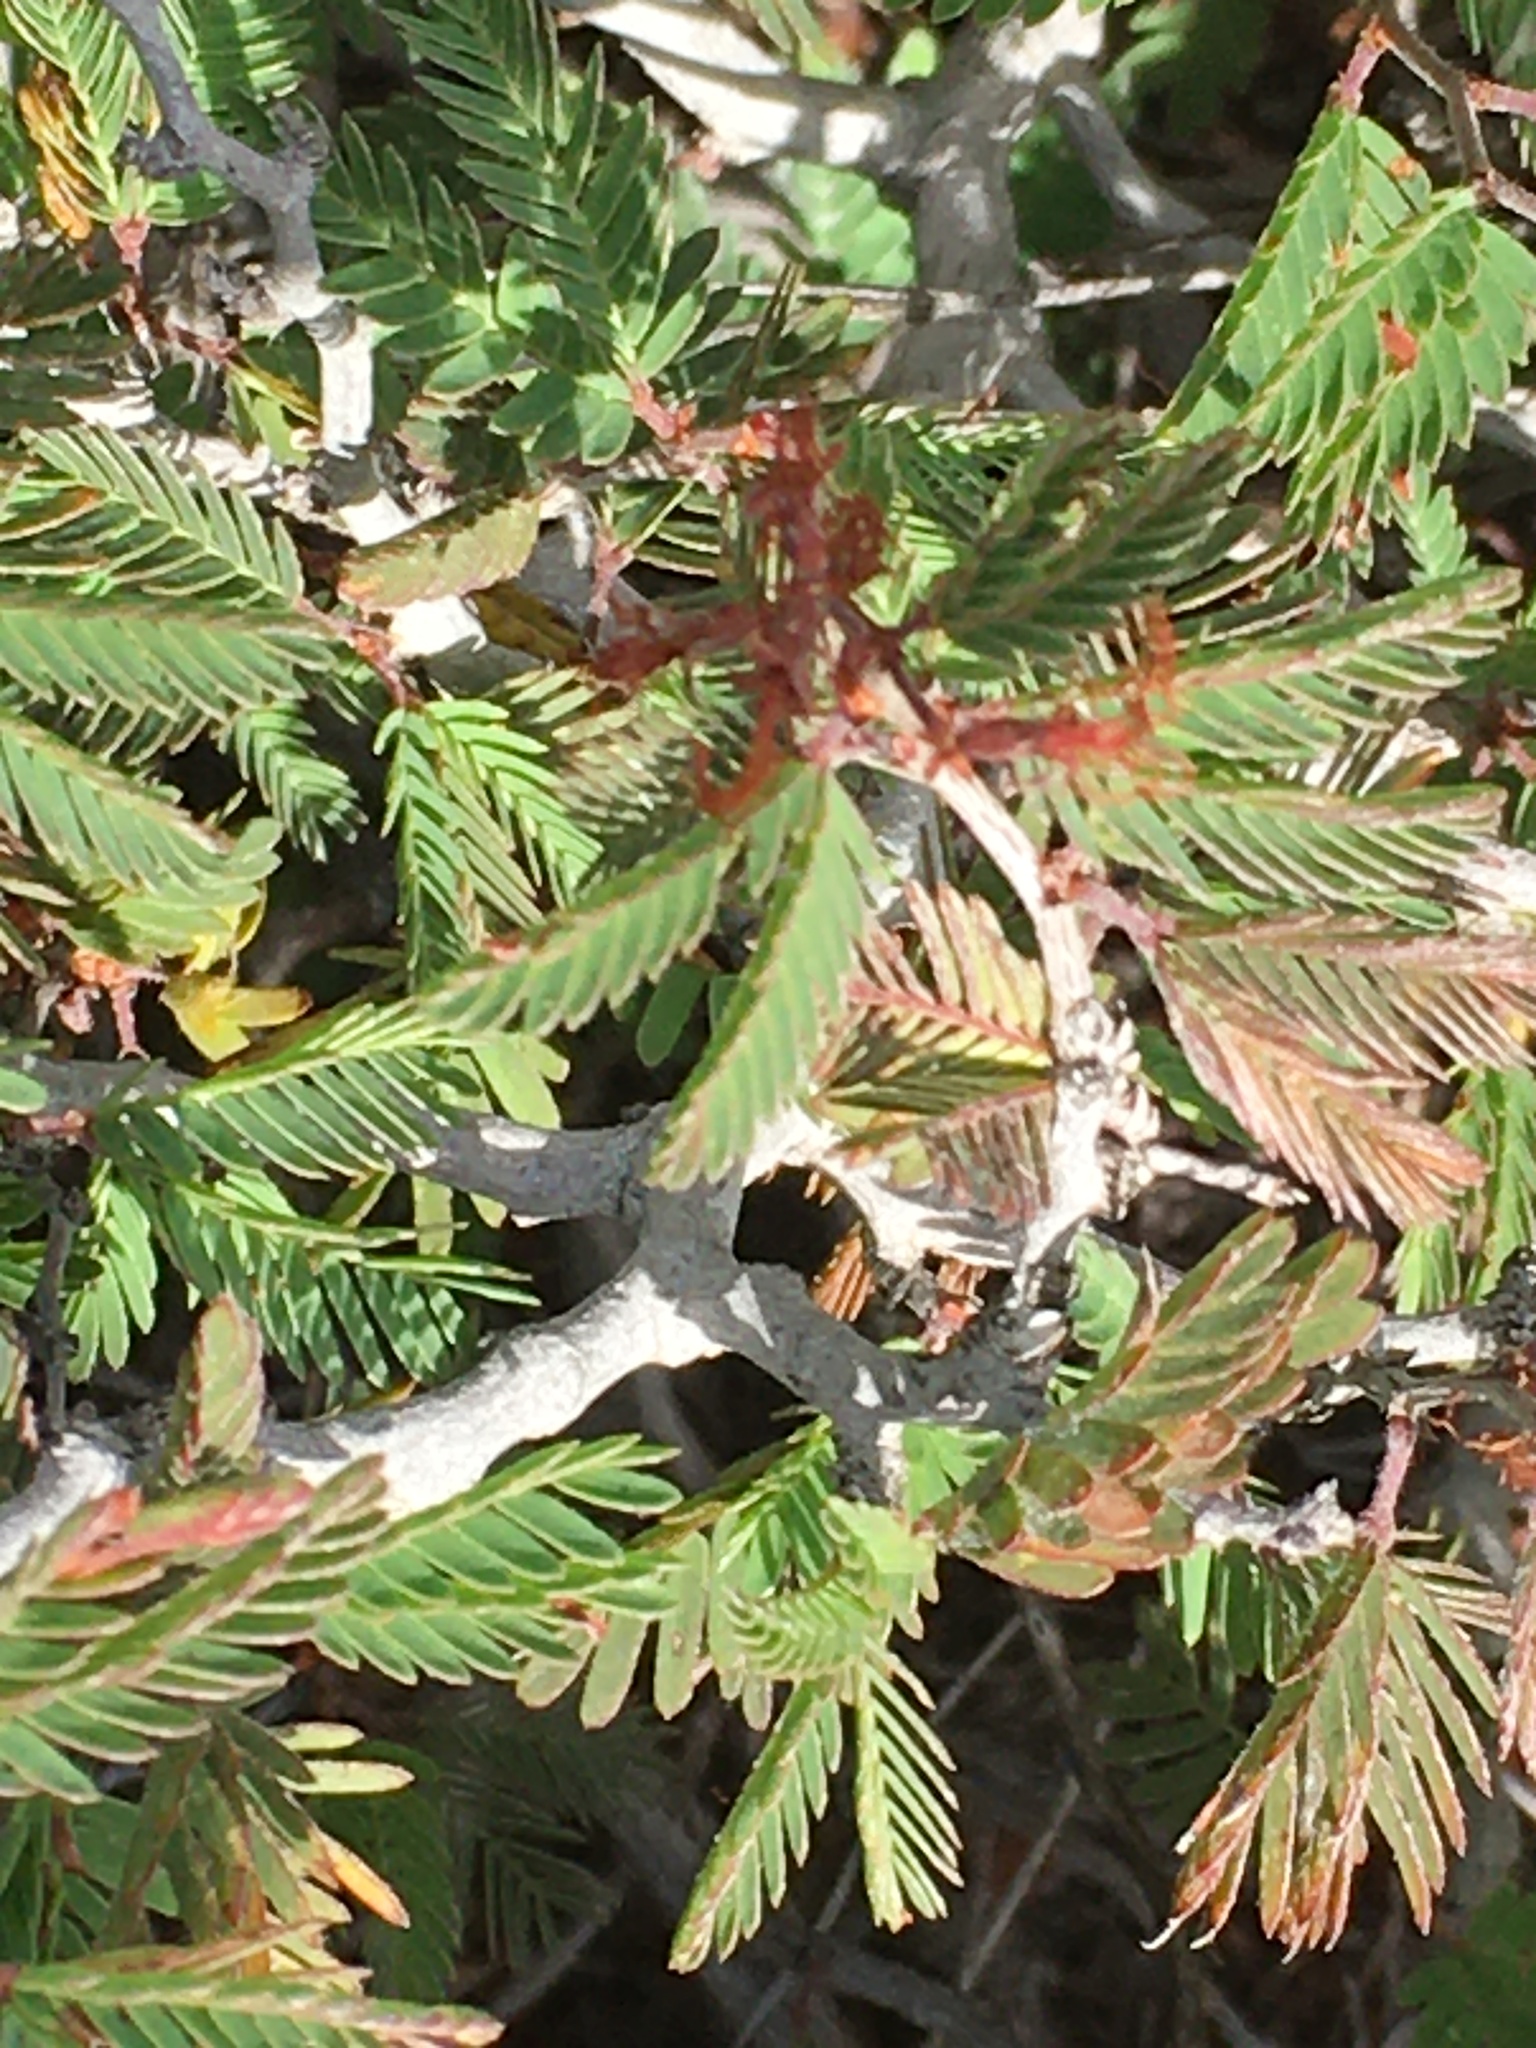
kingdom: Plantae
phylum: Tracheophyta
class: Magnoliopsida
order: Fabales
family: Fabaceae
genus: Calliandra
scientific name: Calliandra conferta
